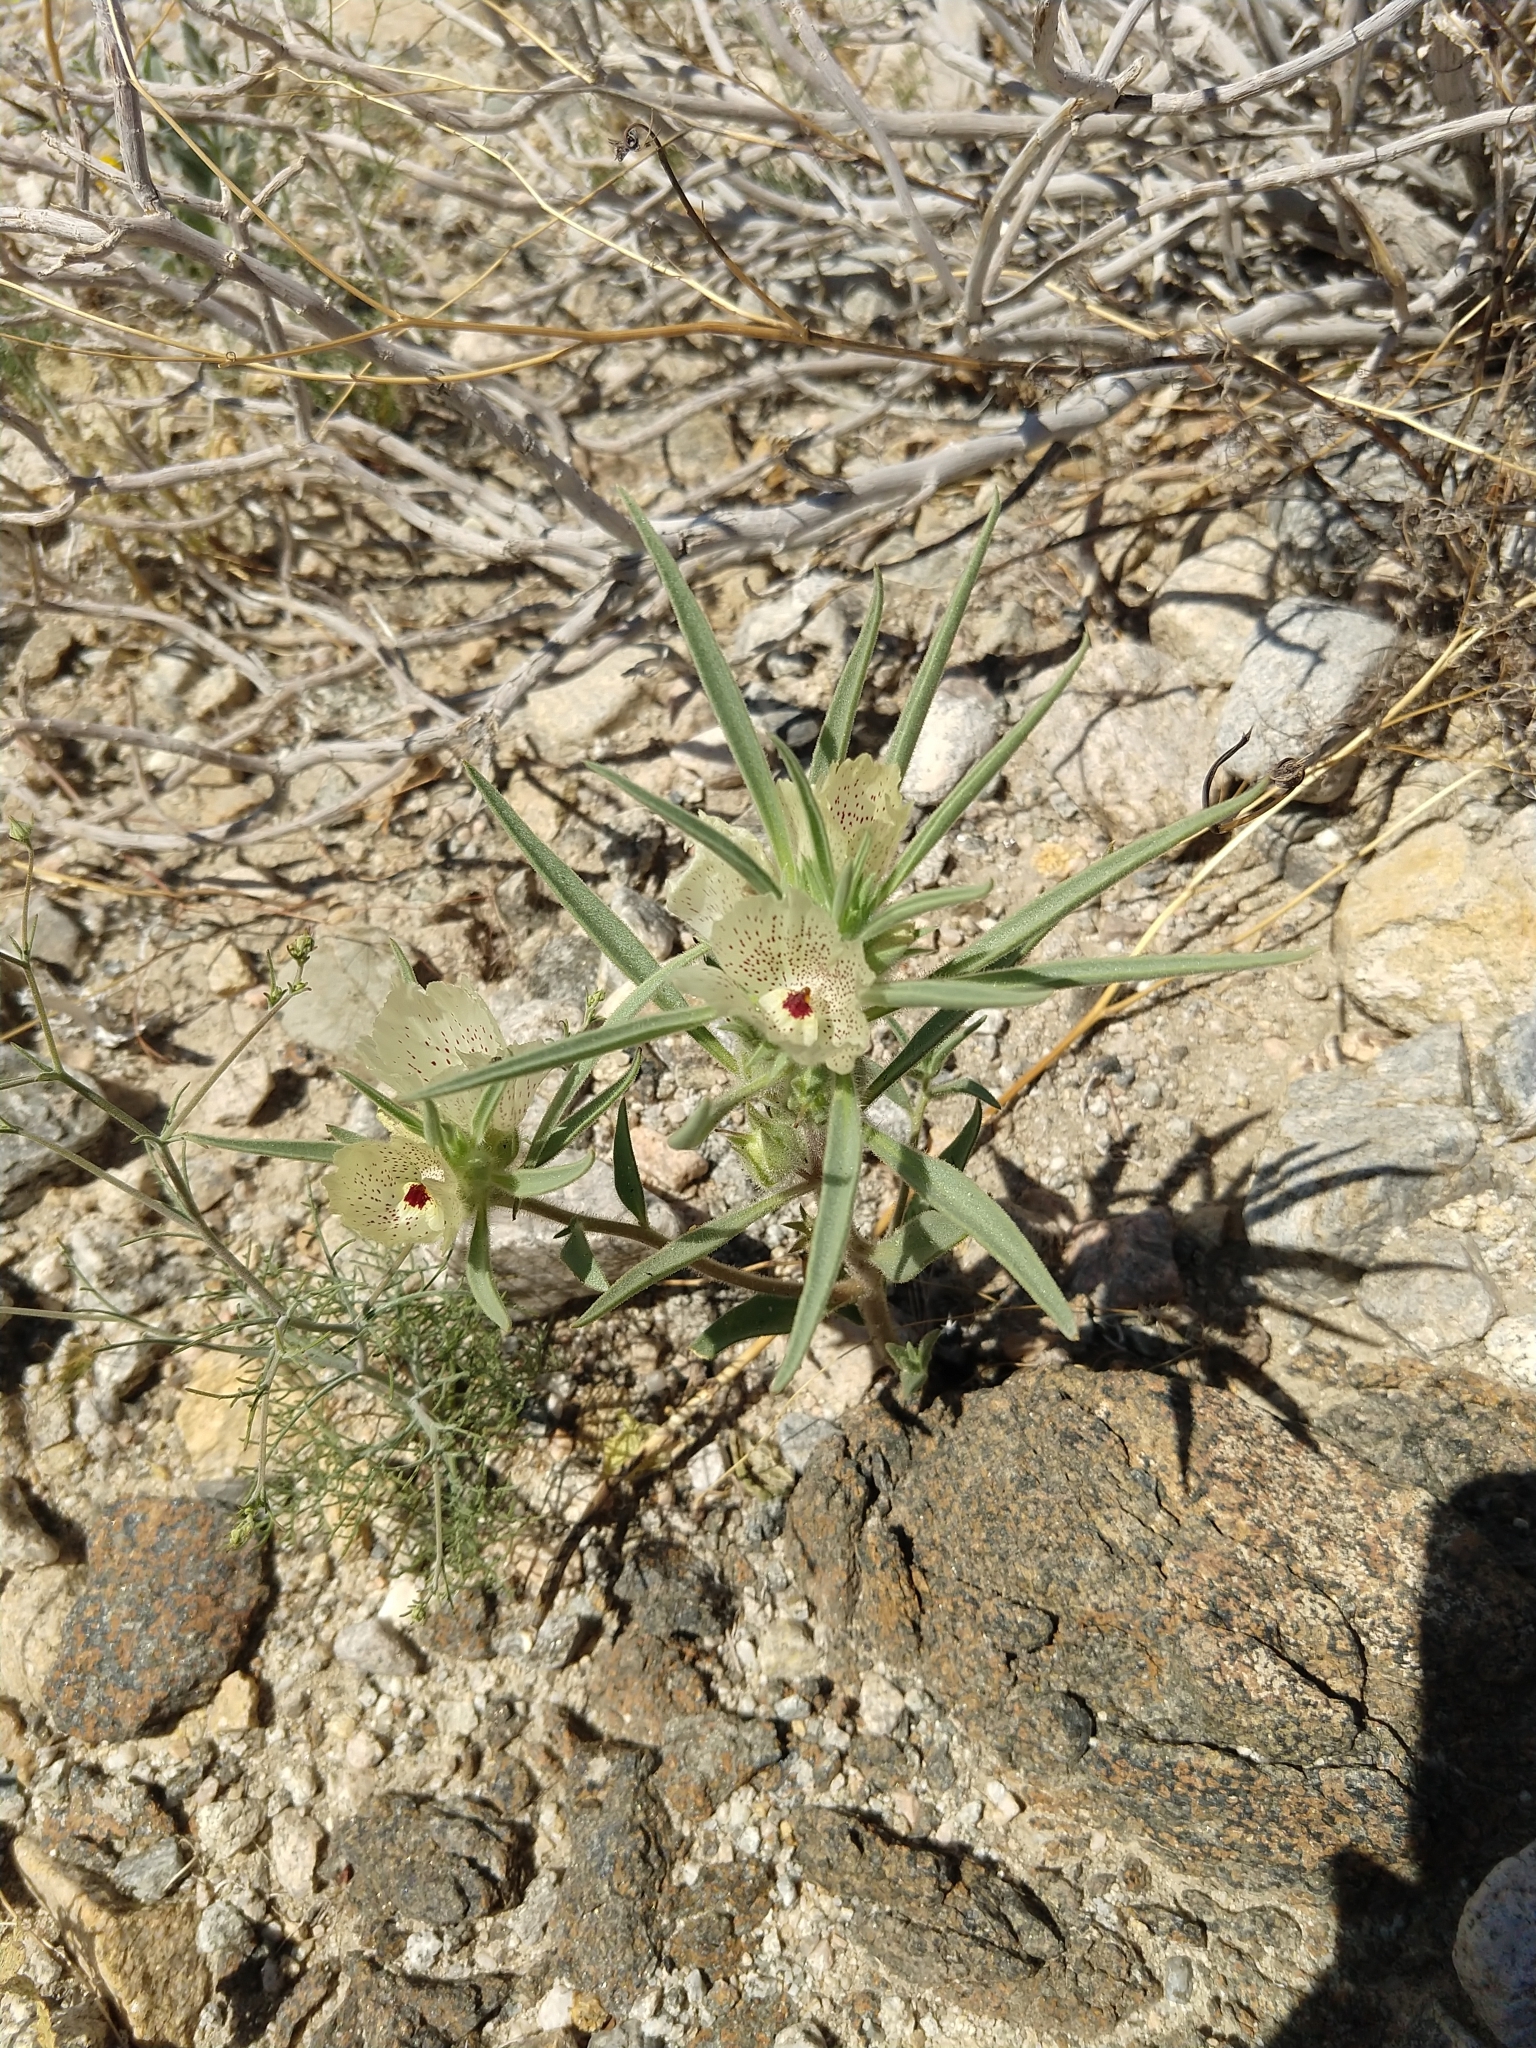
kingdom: Plantae
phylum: Tracheophyta
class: Magnoliopsida
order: Lamiales
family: Plantaginaceae
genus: Mohavea
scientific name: Mohavea confertiflora
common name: Ghost flower
